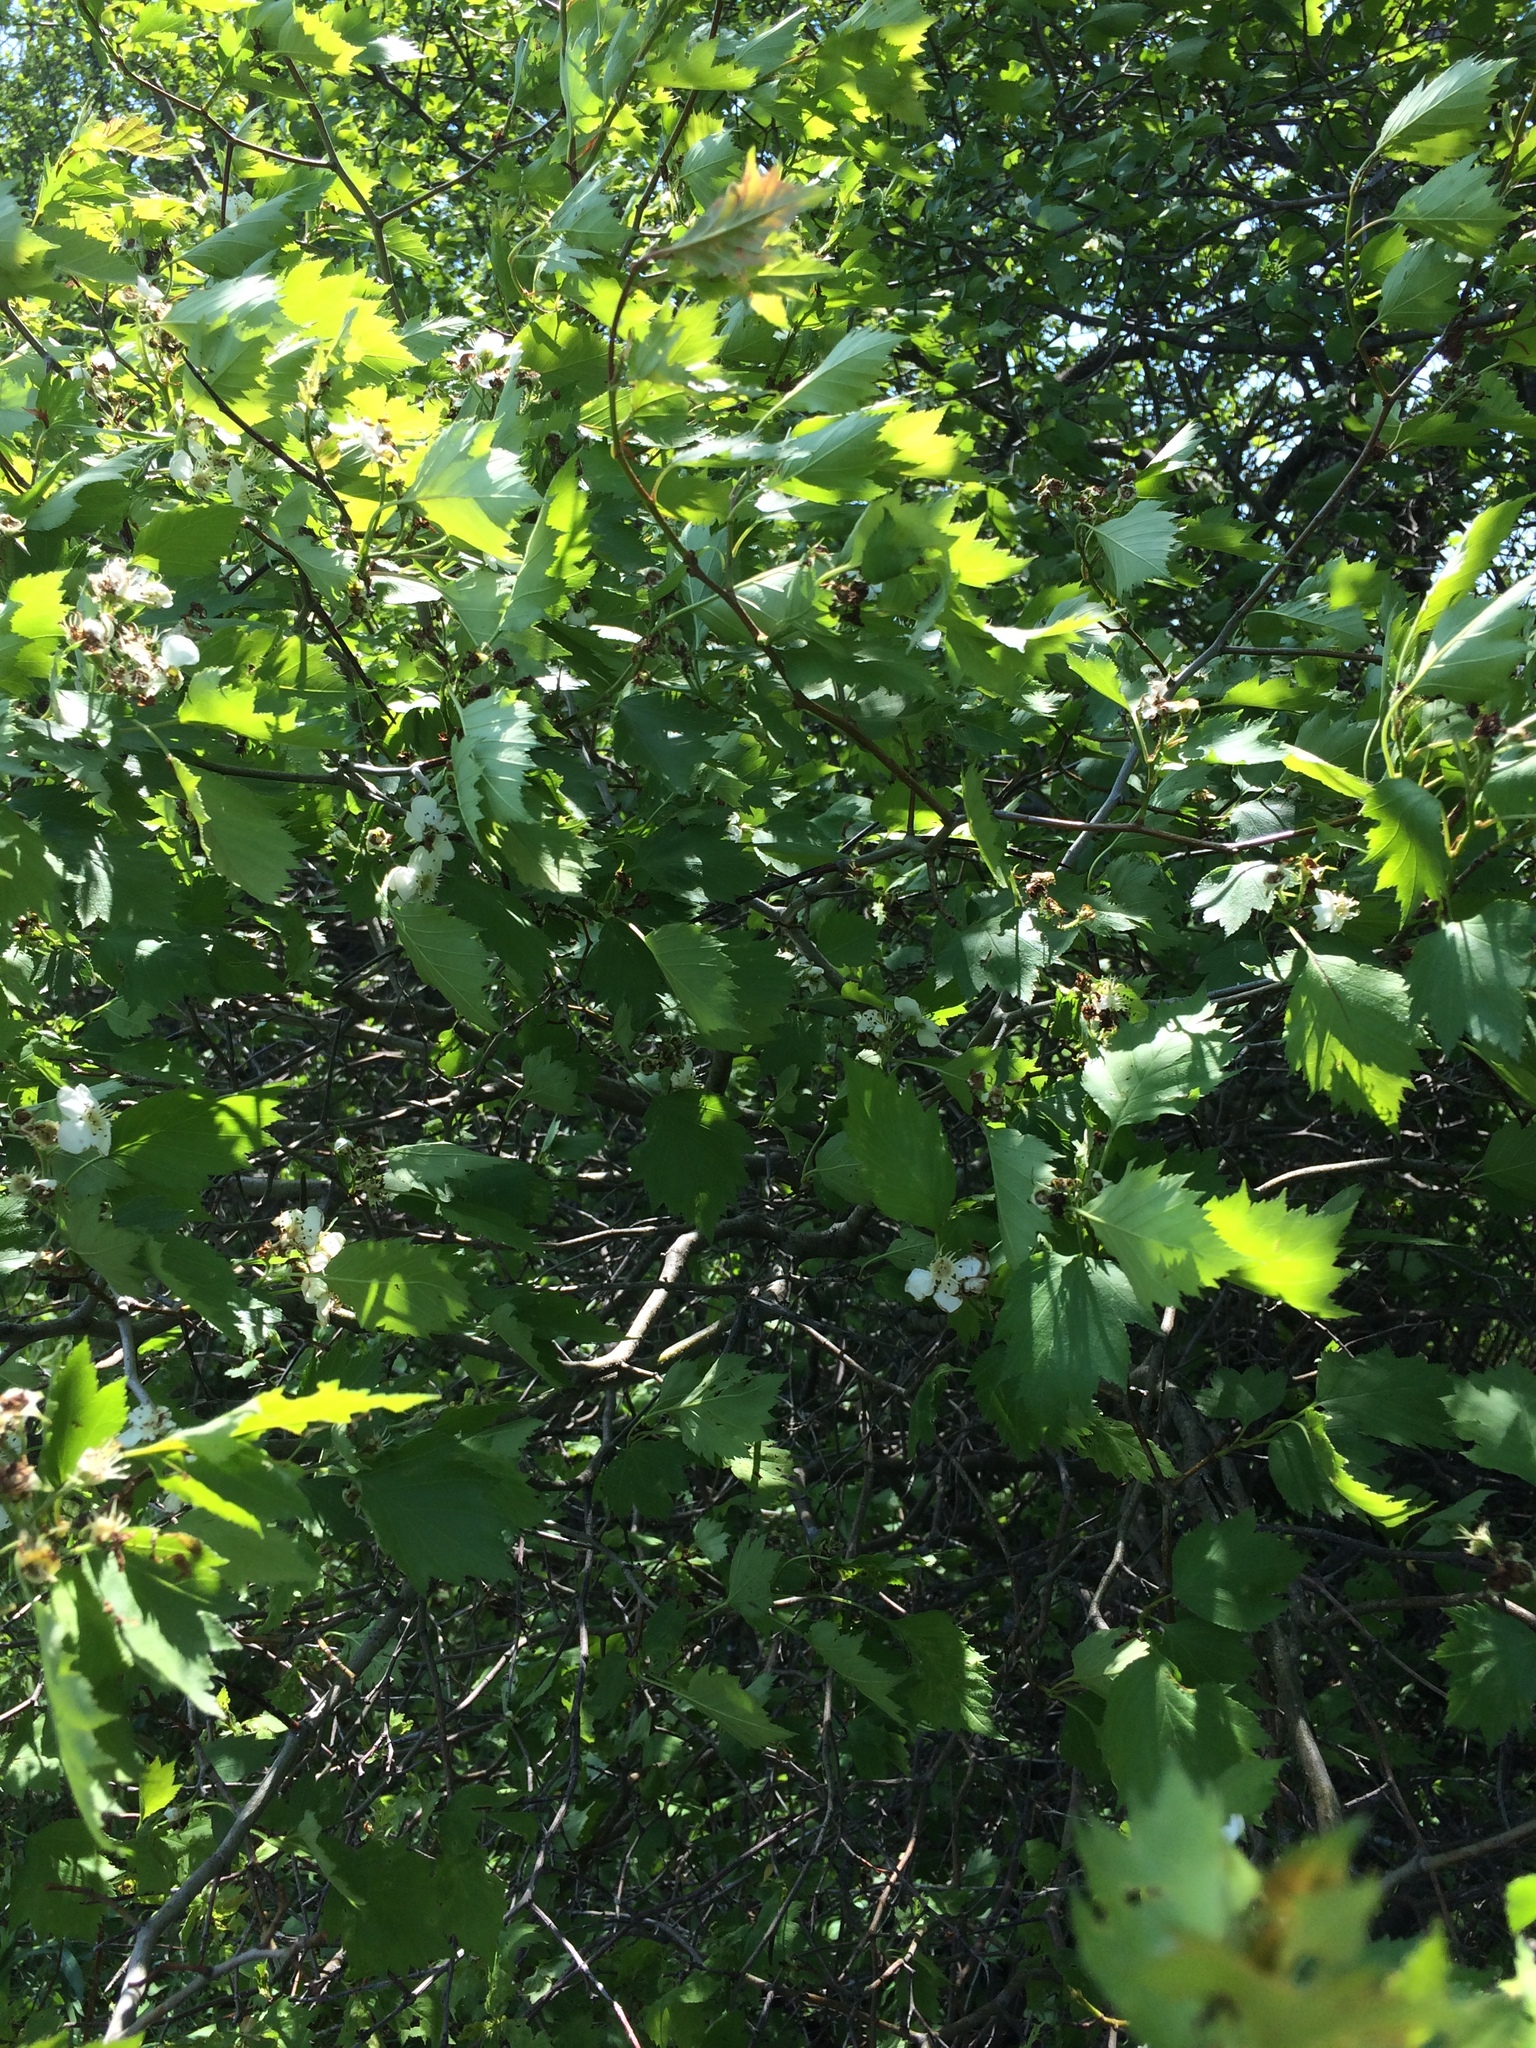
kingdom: Plantae
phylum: Tracheophyta
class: Magnoliopsida
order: Rosales
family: Rosaceae
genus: Crataegus
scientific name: Crataegus flabellata
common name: Bosc's hawthorn
